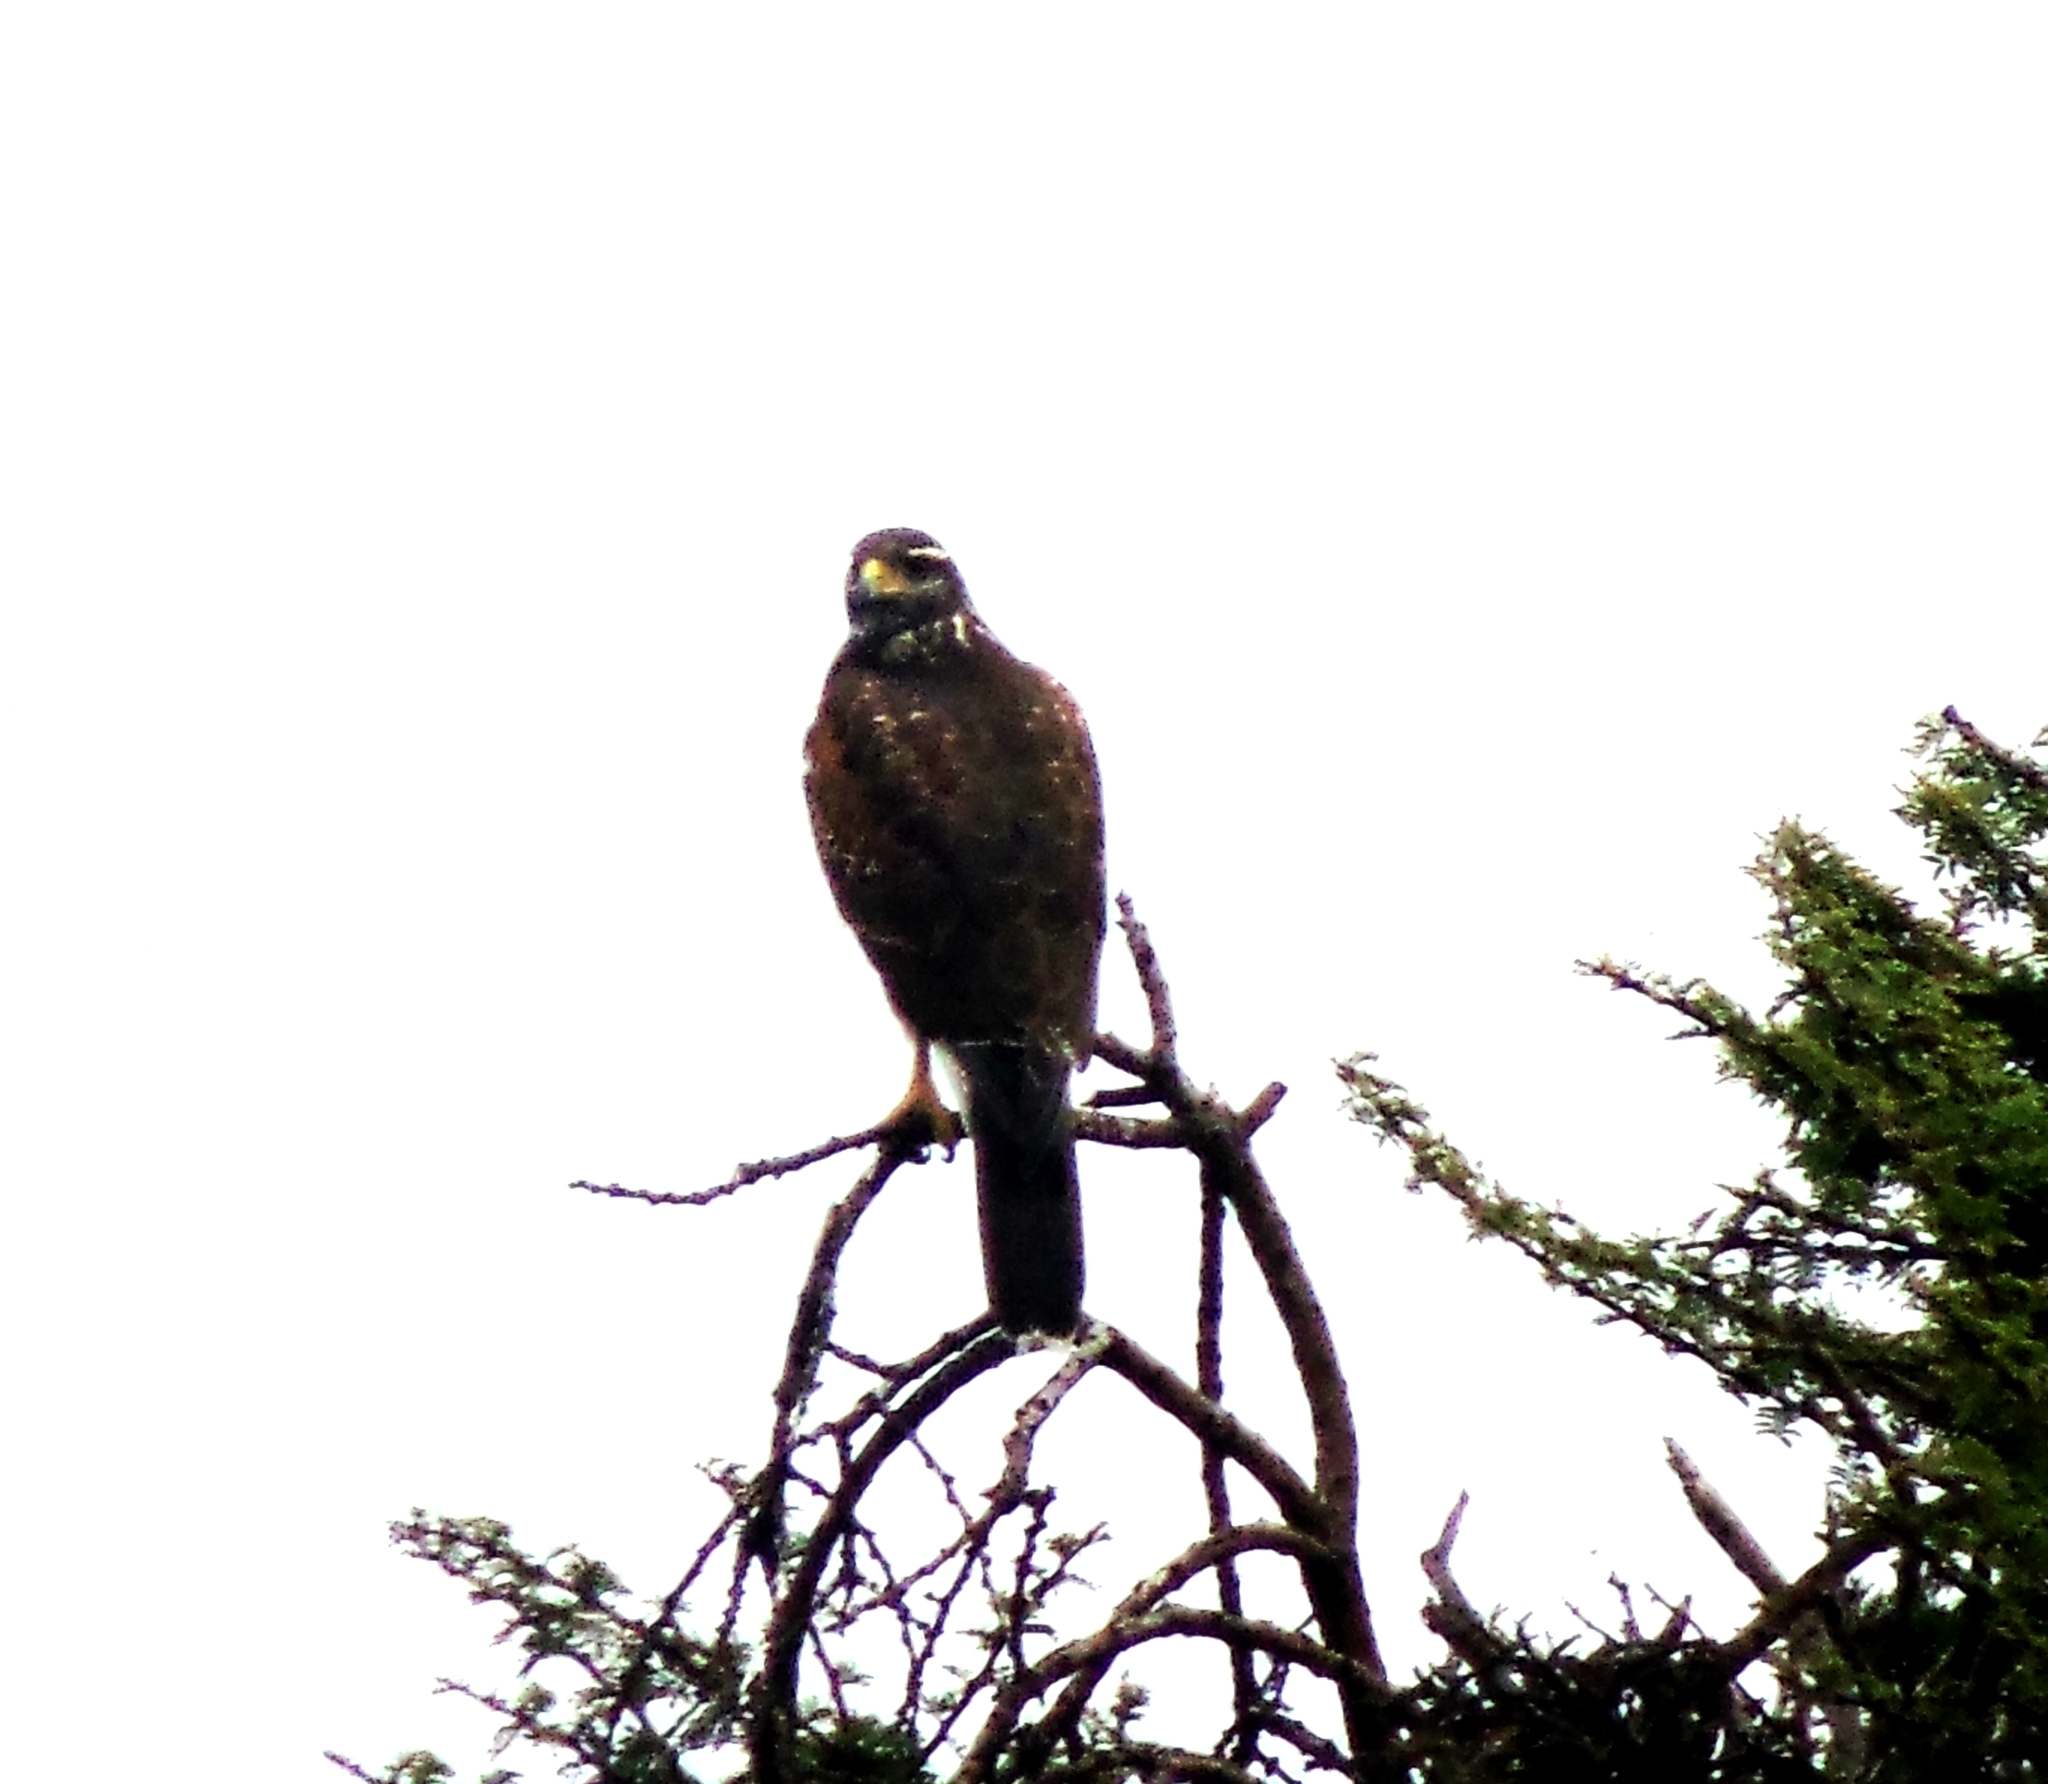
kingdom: Animalia
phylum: Chordata
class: Aves
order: Accipitriformes
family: Accipitridae
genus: Parabuteo
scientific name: Parabuteo unicinctus
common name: Harris's hawk
